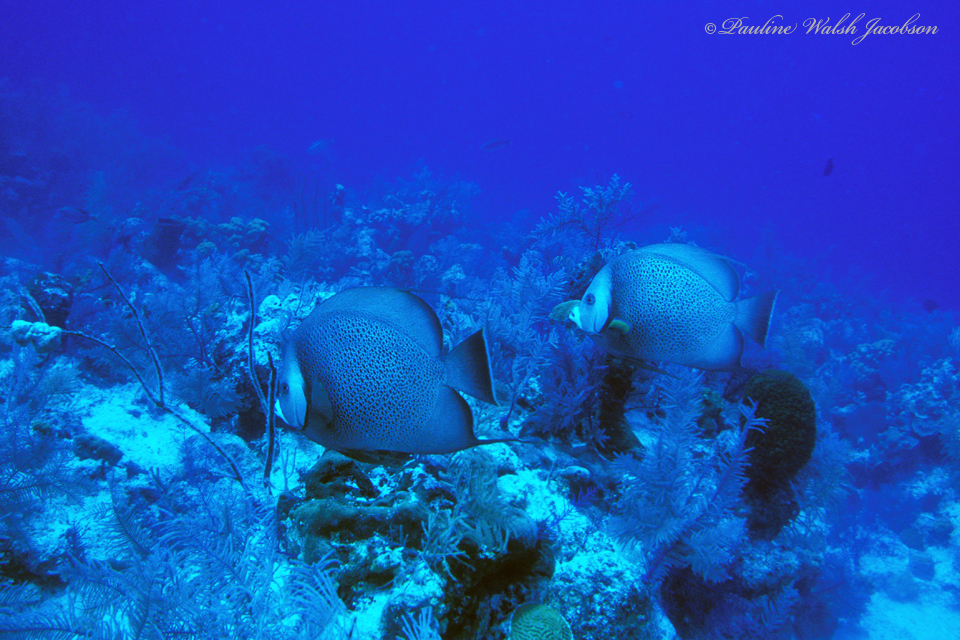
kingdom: Animalia
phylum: Chordata
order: Perciformes
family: Pomacanthidae
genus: Pomacanthus
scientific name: Pomacanthus arcuatus
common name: Gray angelfish
